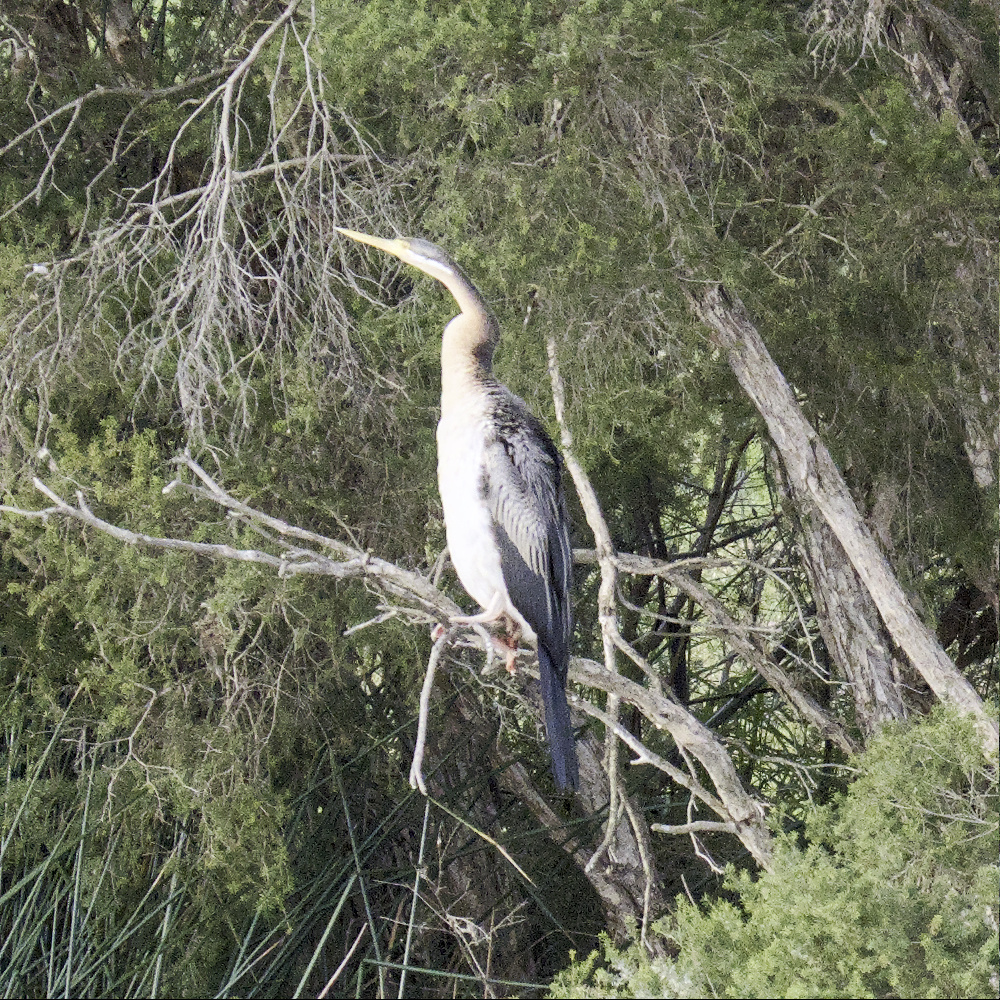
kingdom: Animalia
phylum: Chordata
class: Aves
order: Suliformes
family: Anhingidae
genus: Anhinga
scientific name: Anhinga novaehollandiae
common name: Australasian darter
